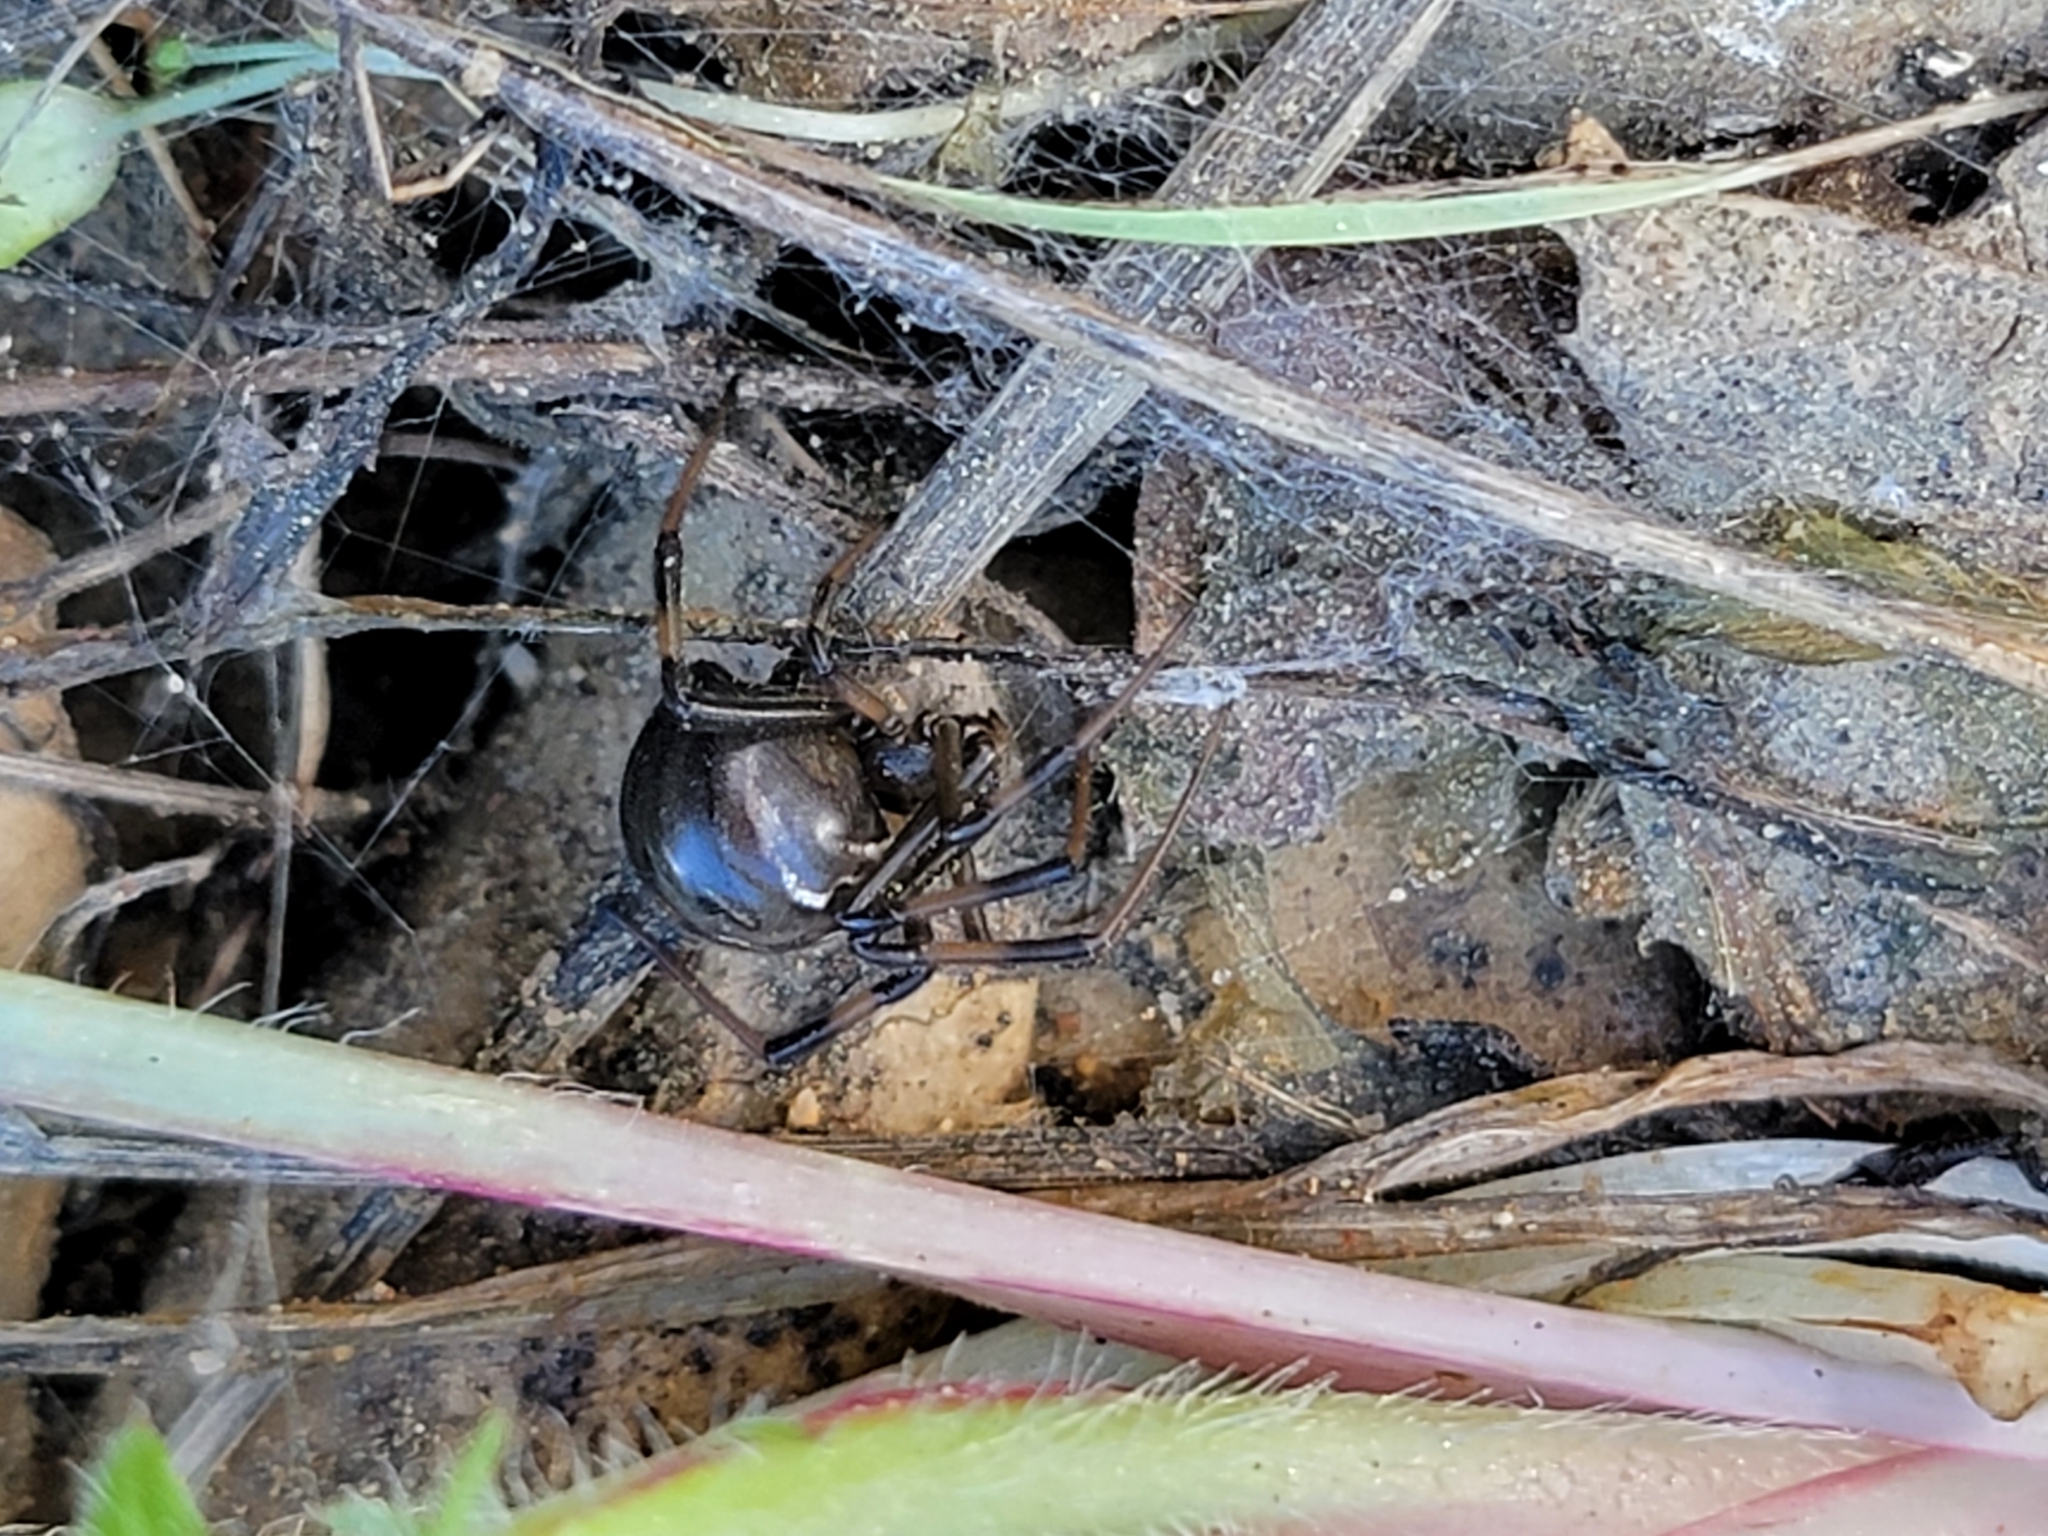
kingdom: Animalia
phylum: Arthropoda
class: Arachnida
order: Araneae
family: Theridiidae
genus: Latrodectus
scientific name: Latrodectus hesperus
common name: Western black widow
